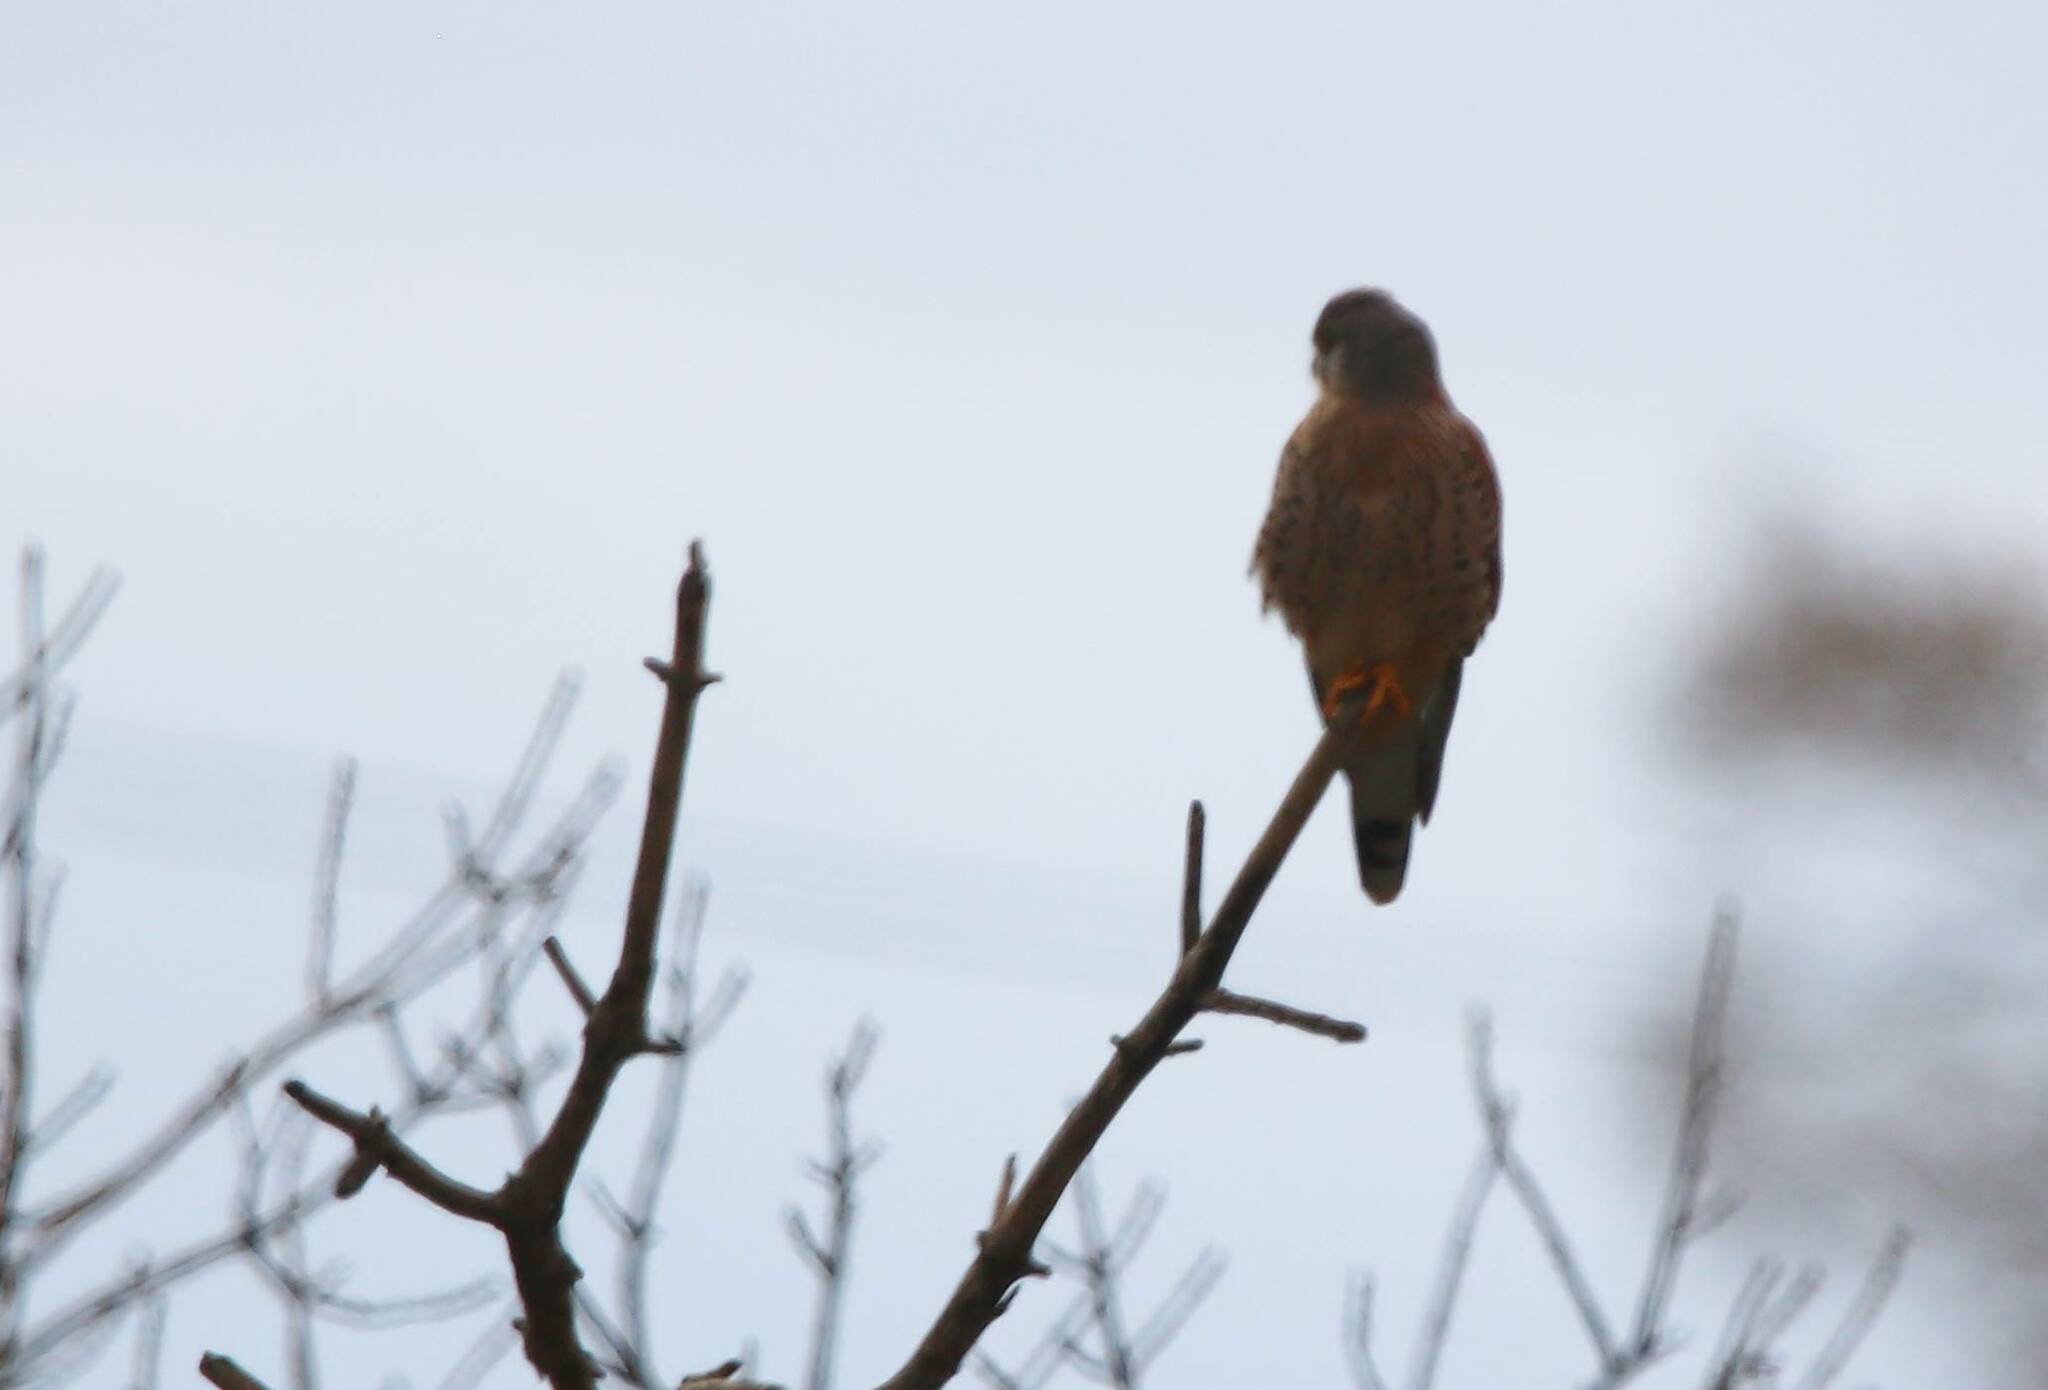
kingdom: Animalia
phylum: Chordata
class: Aves
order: Falconiformes
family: Falconidae
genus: Falco
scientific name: Falco tinnunculus
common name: Common kestrel
